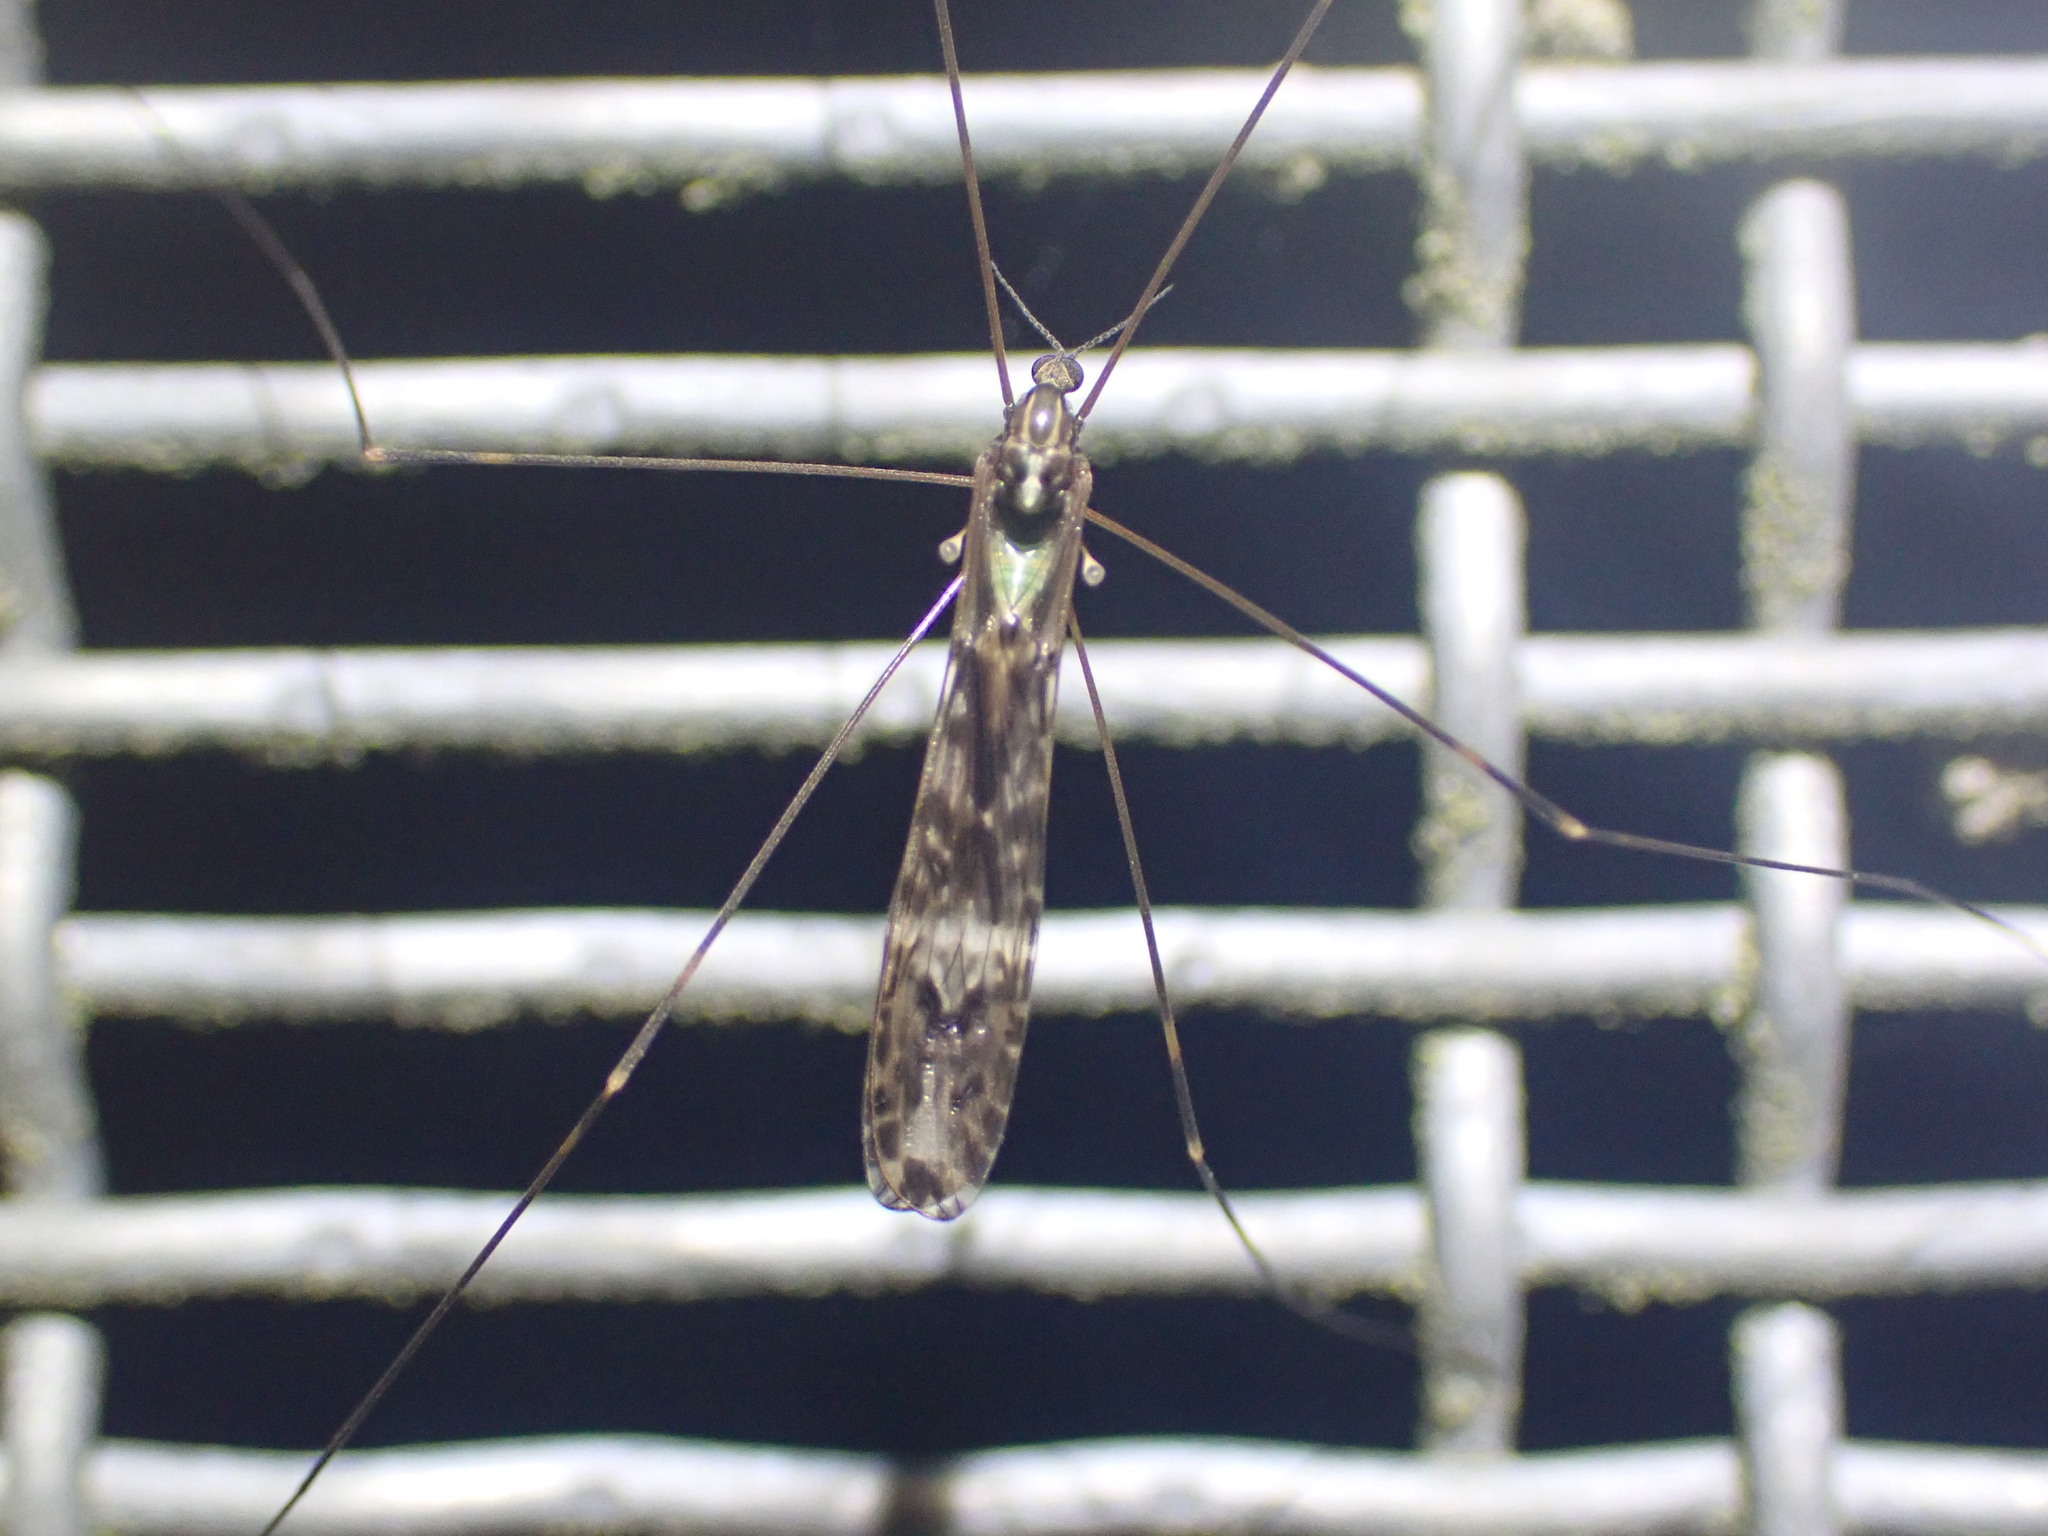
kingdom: Animalia
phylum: Arthropoda
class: Insecta
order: Diptera
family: Limoniidae
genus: Discobola
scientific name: Discobola dohrni
